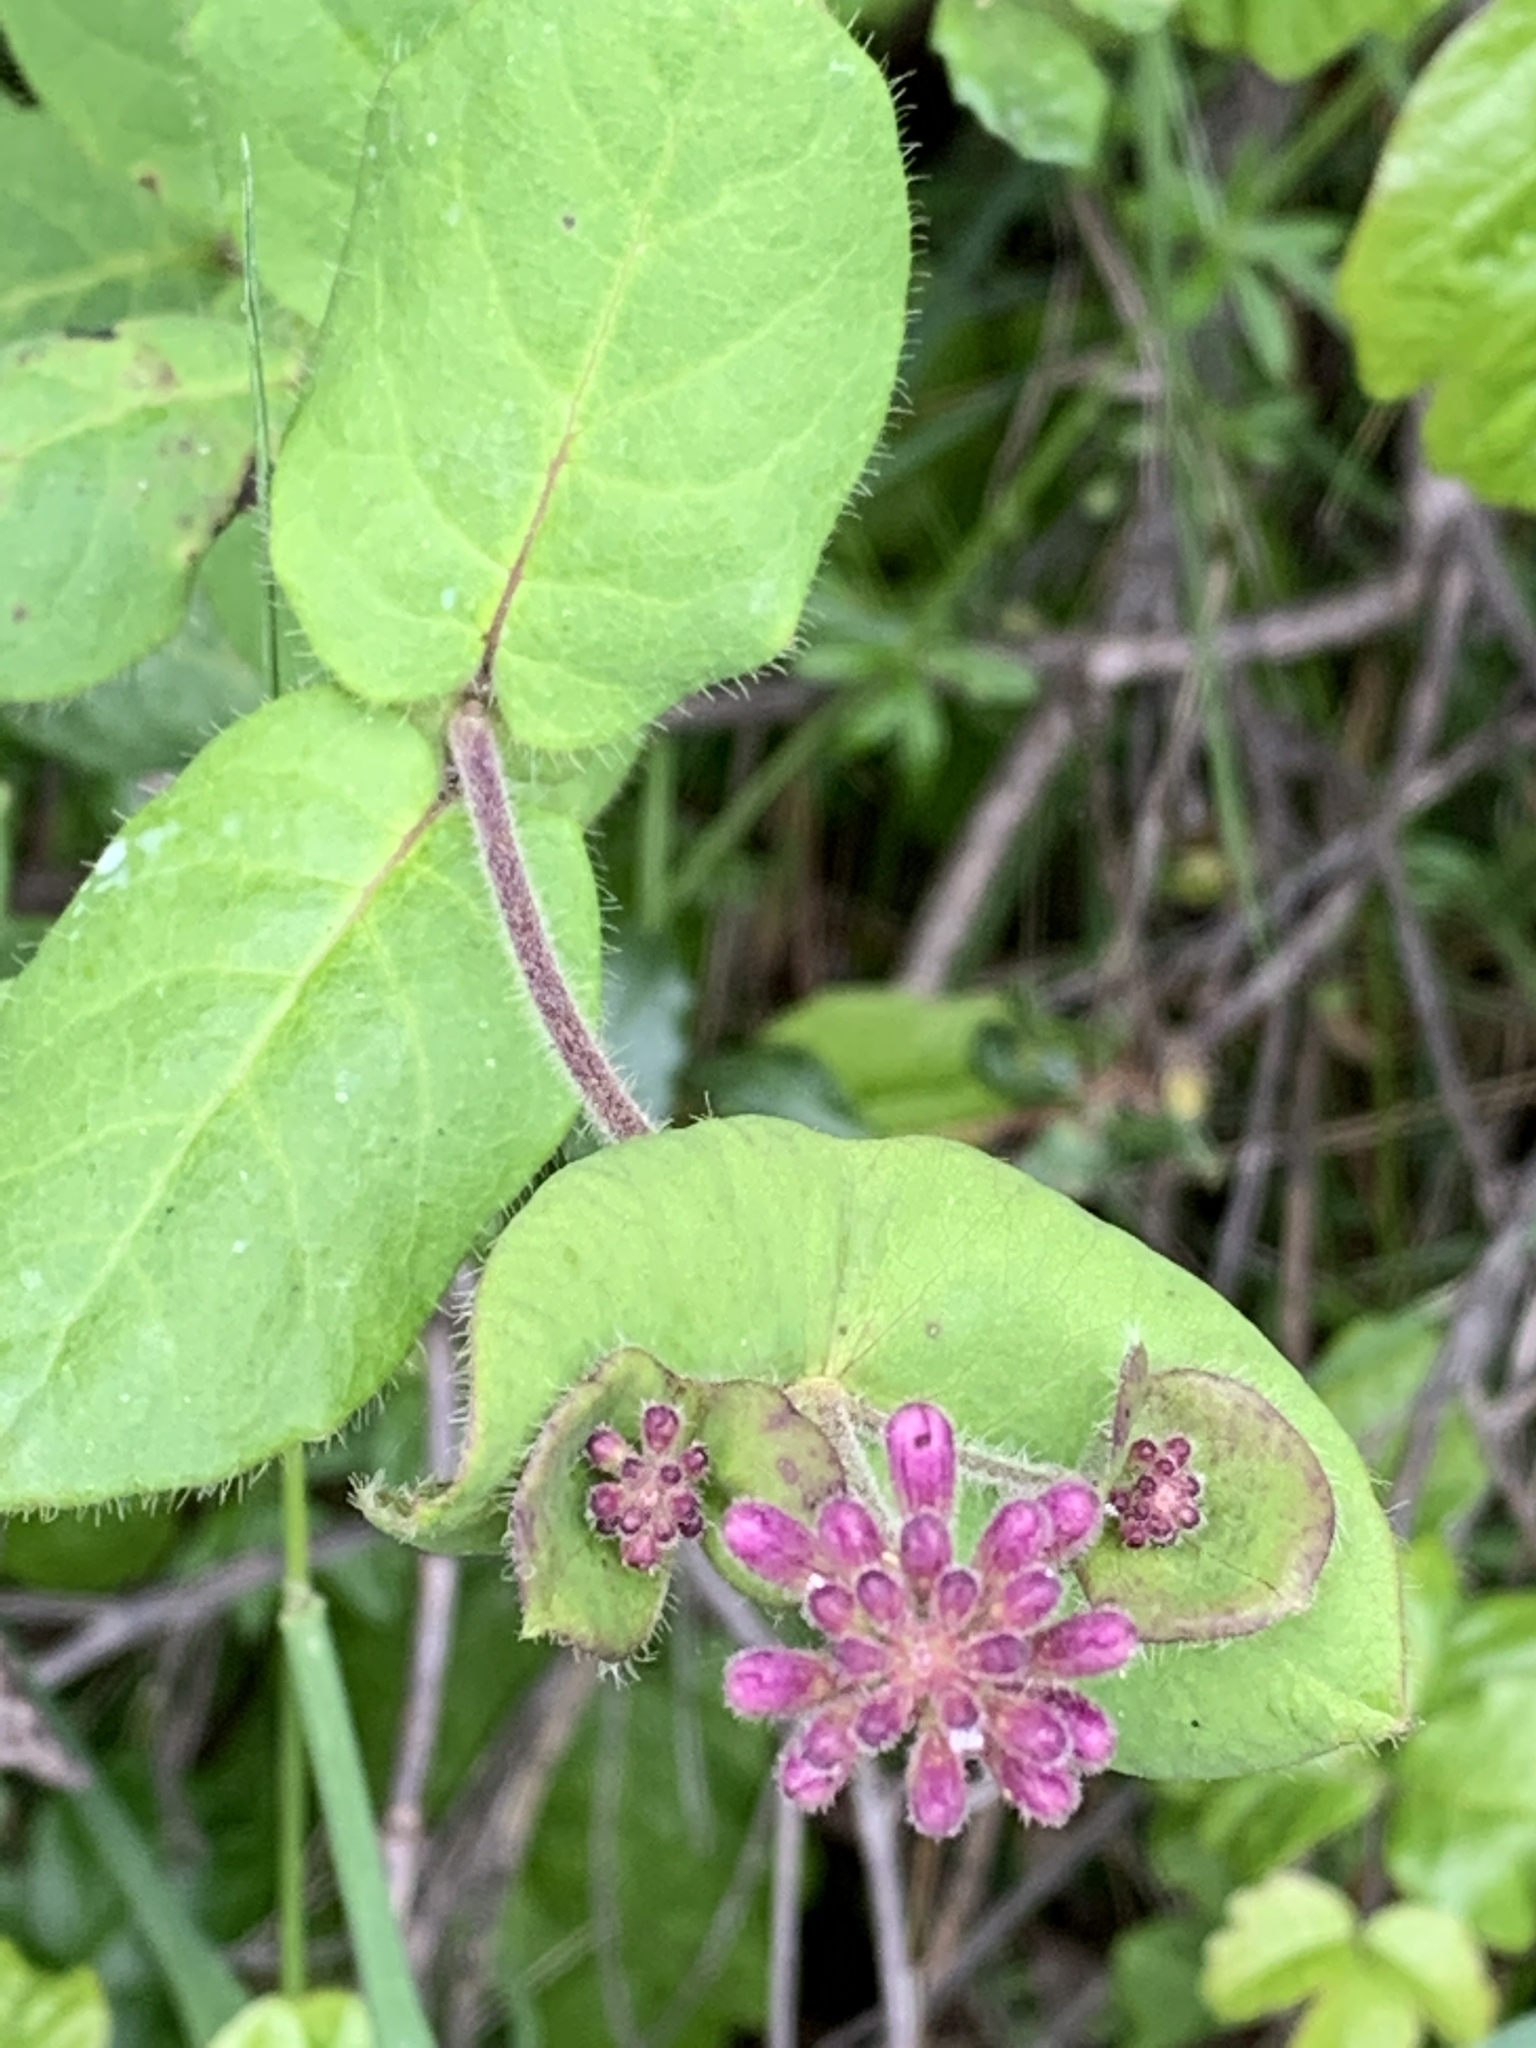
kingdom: Plantae
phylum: Tracheophyta
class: Magnoliopsida
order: Dipsacales
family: Caprifoliaceae
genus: Lonicera
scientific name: Lonicera hispidula
